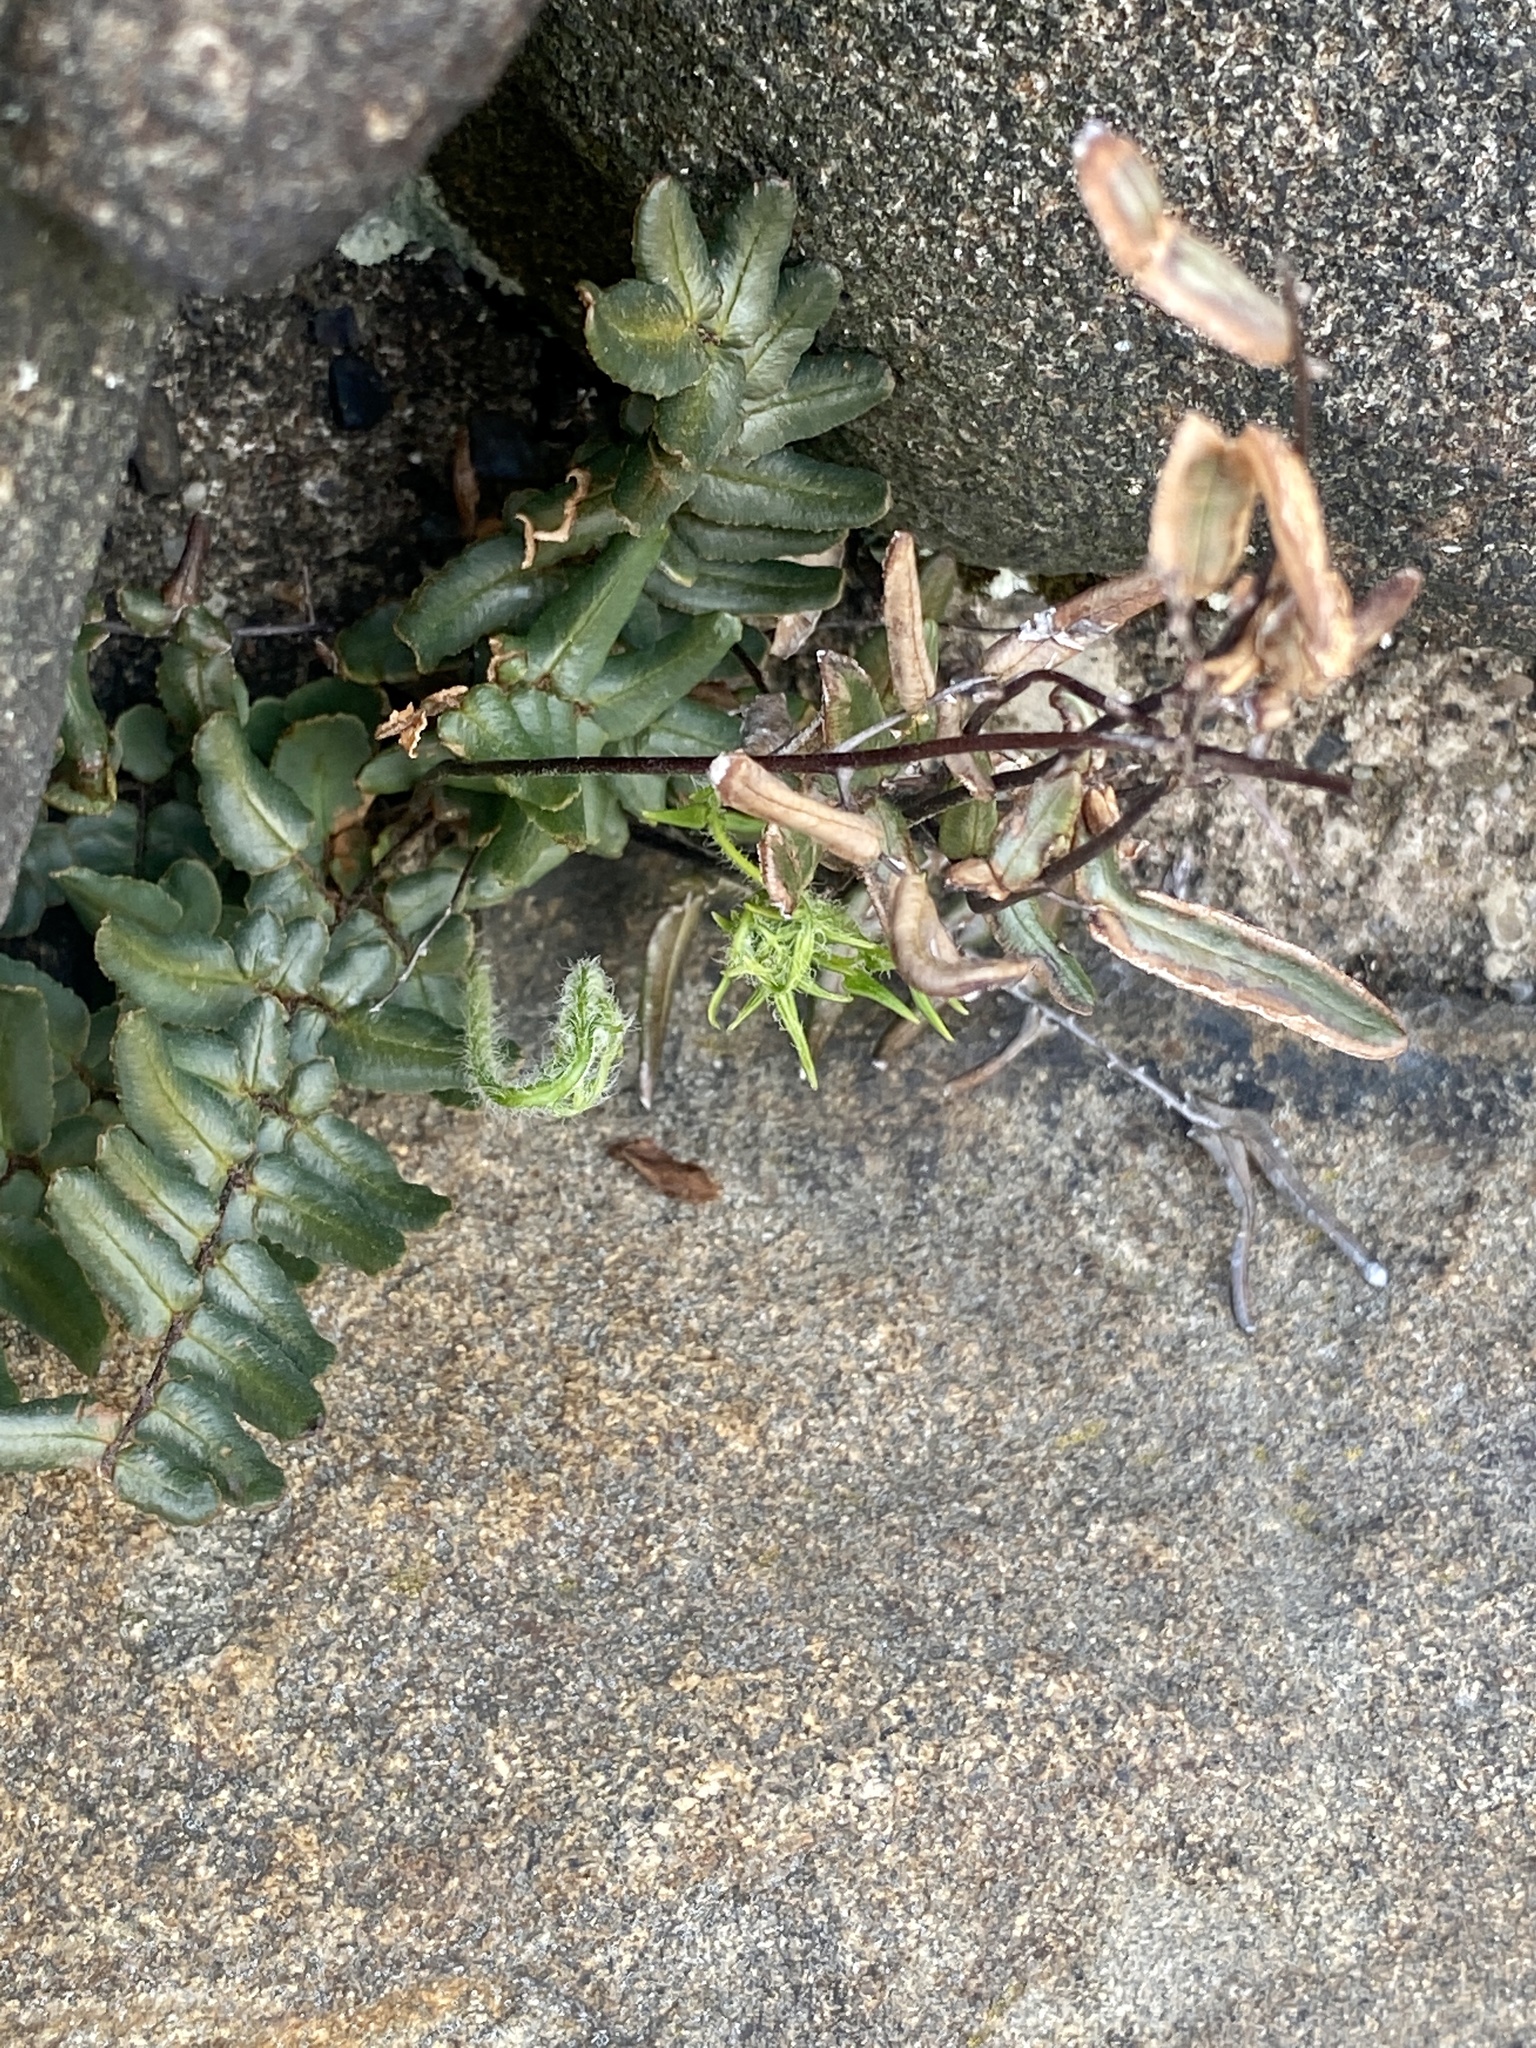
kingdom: Plantae
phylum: Tracheophyta
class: Polypodiopsida
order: Polypodiales
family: Pteridaceae
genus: Pellaea
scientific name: Pellaea atropurpurea
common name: Hairy cliffbrake
